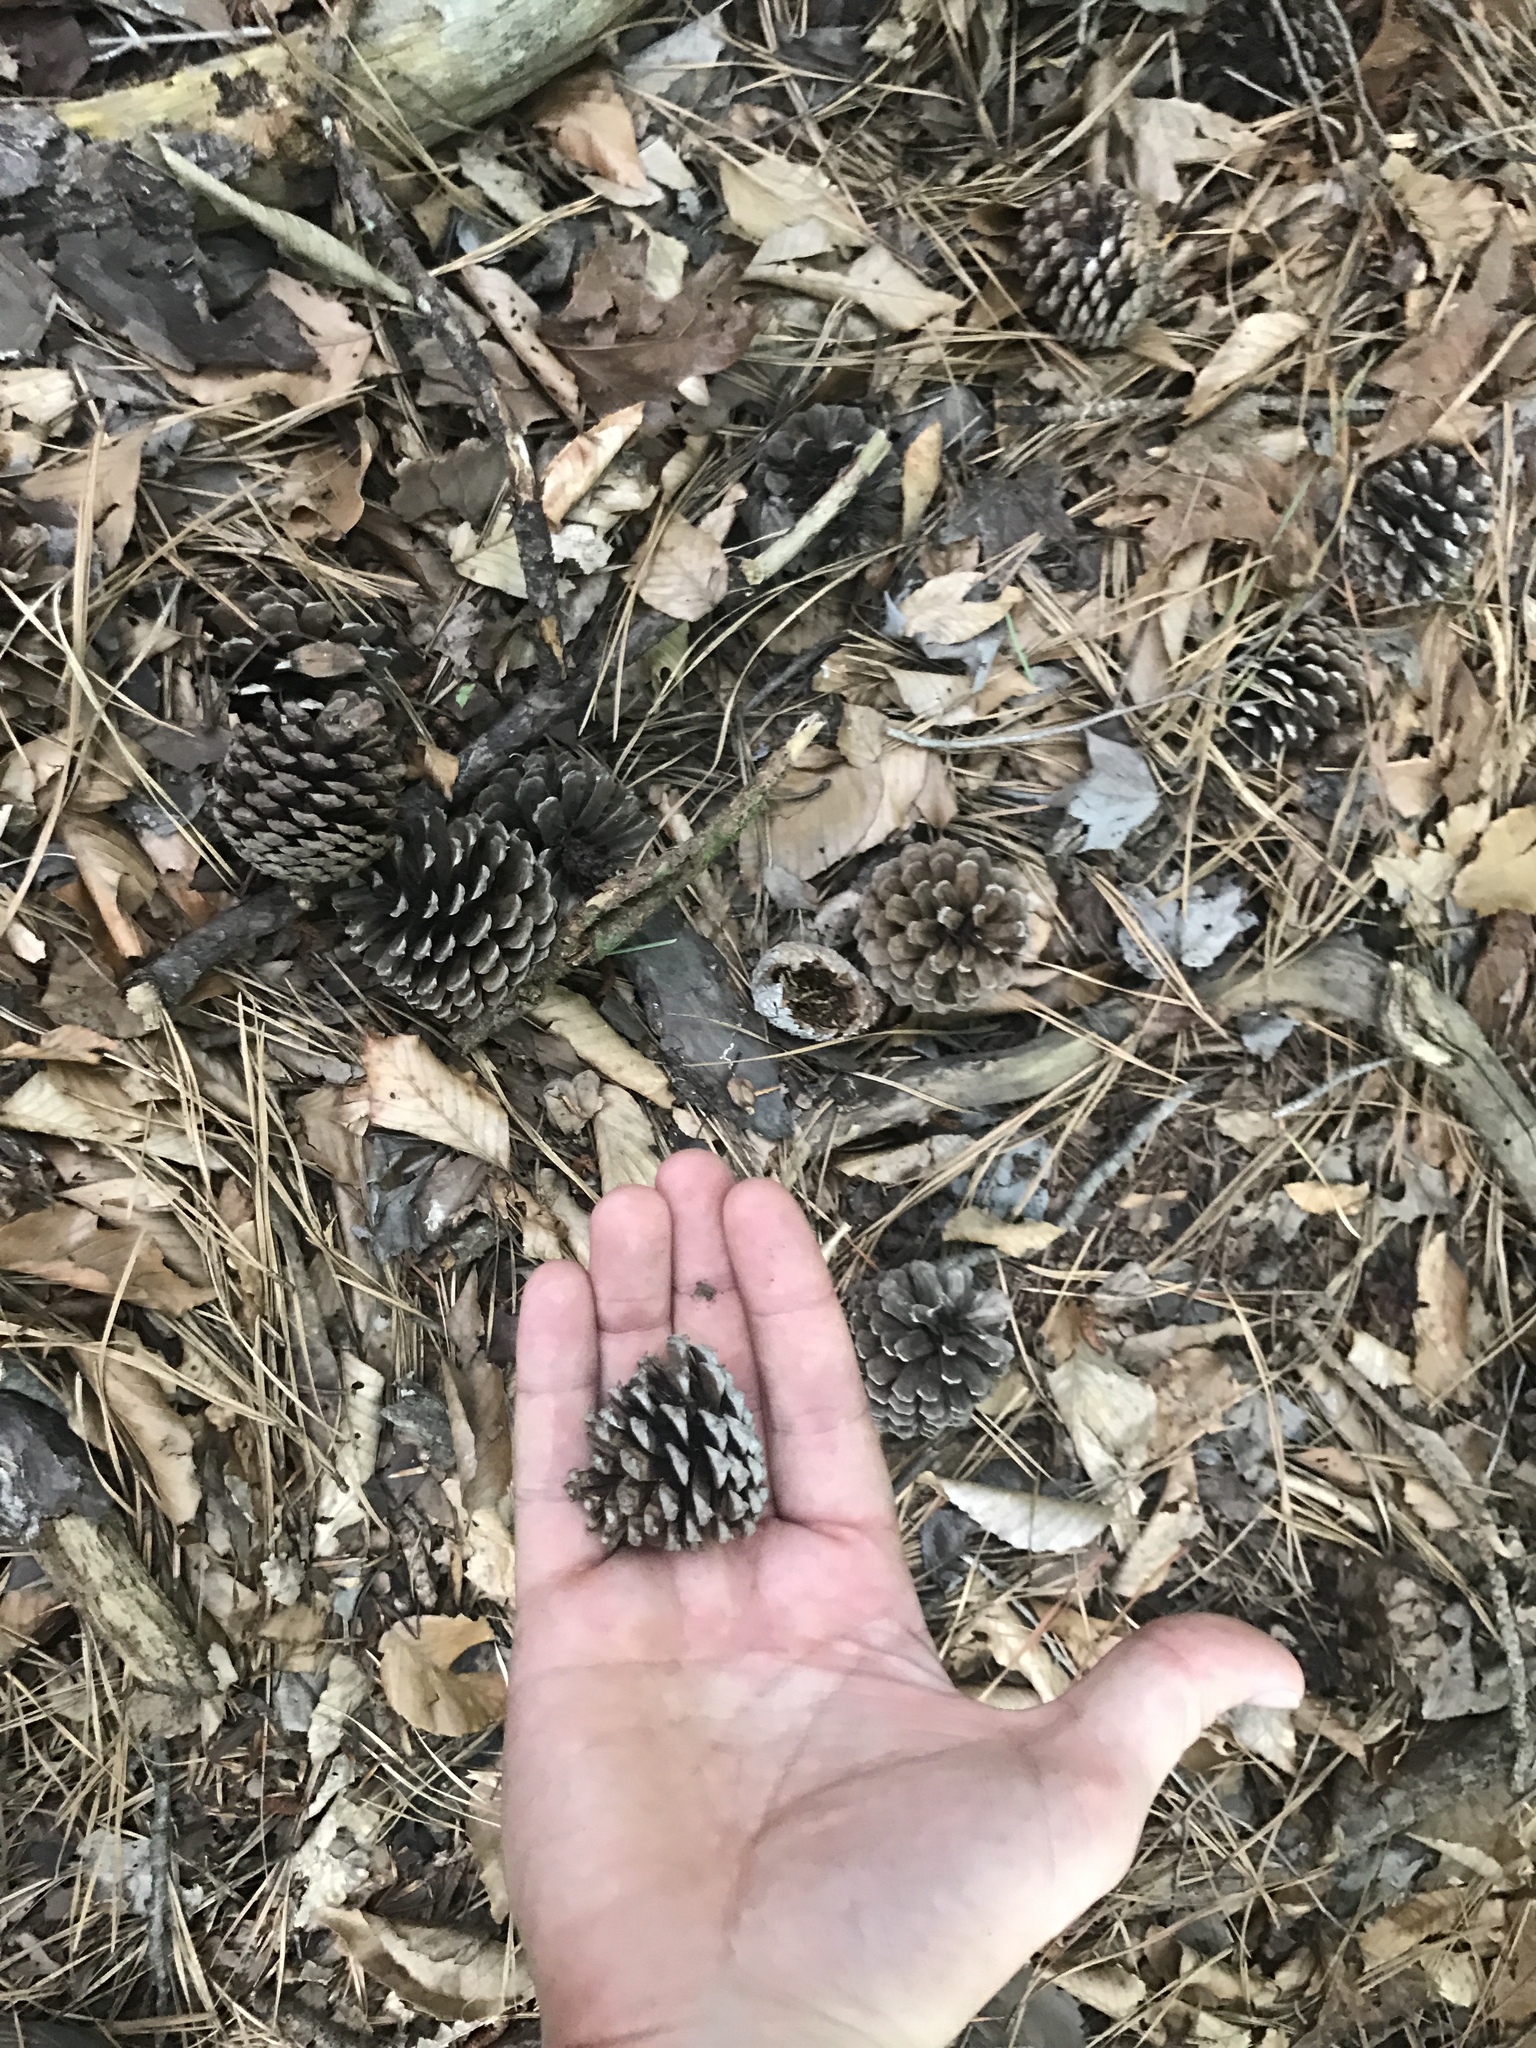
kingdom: Plantae
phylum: Tracheophyta
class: Pinopsida
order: Pinales
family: Pinaceae
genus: Pinus
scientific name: Pinus rigida
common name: Pitch pine
